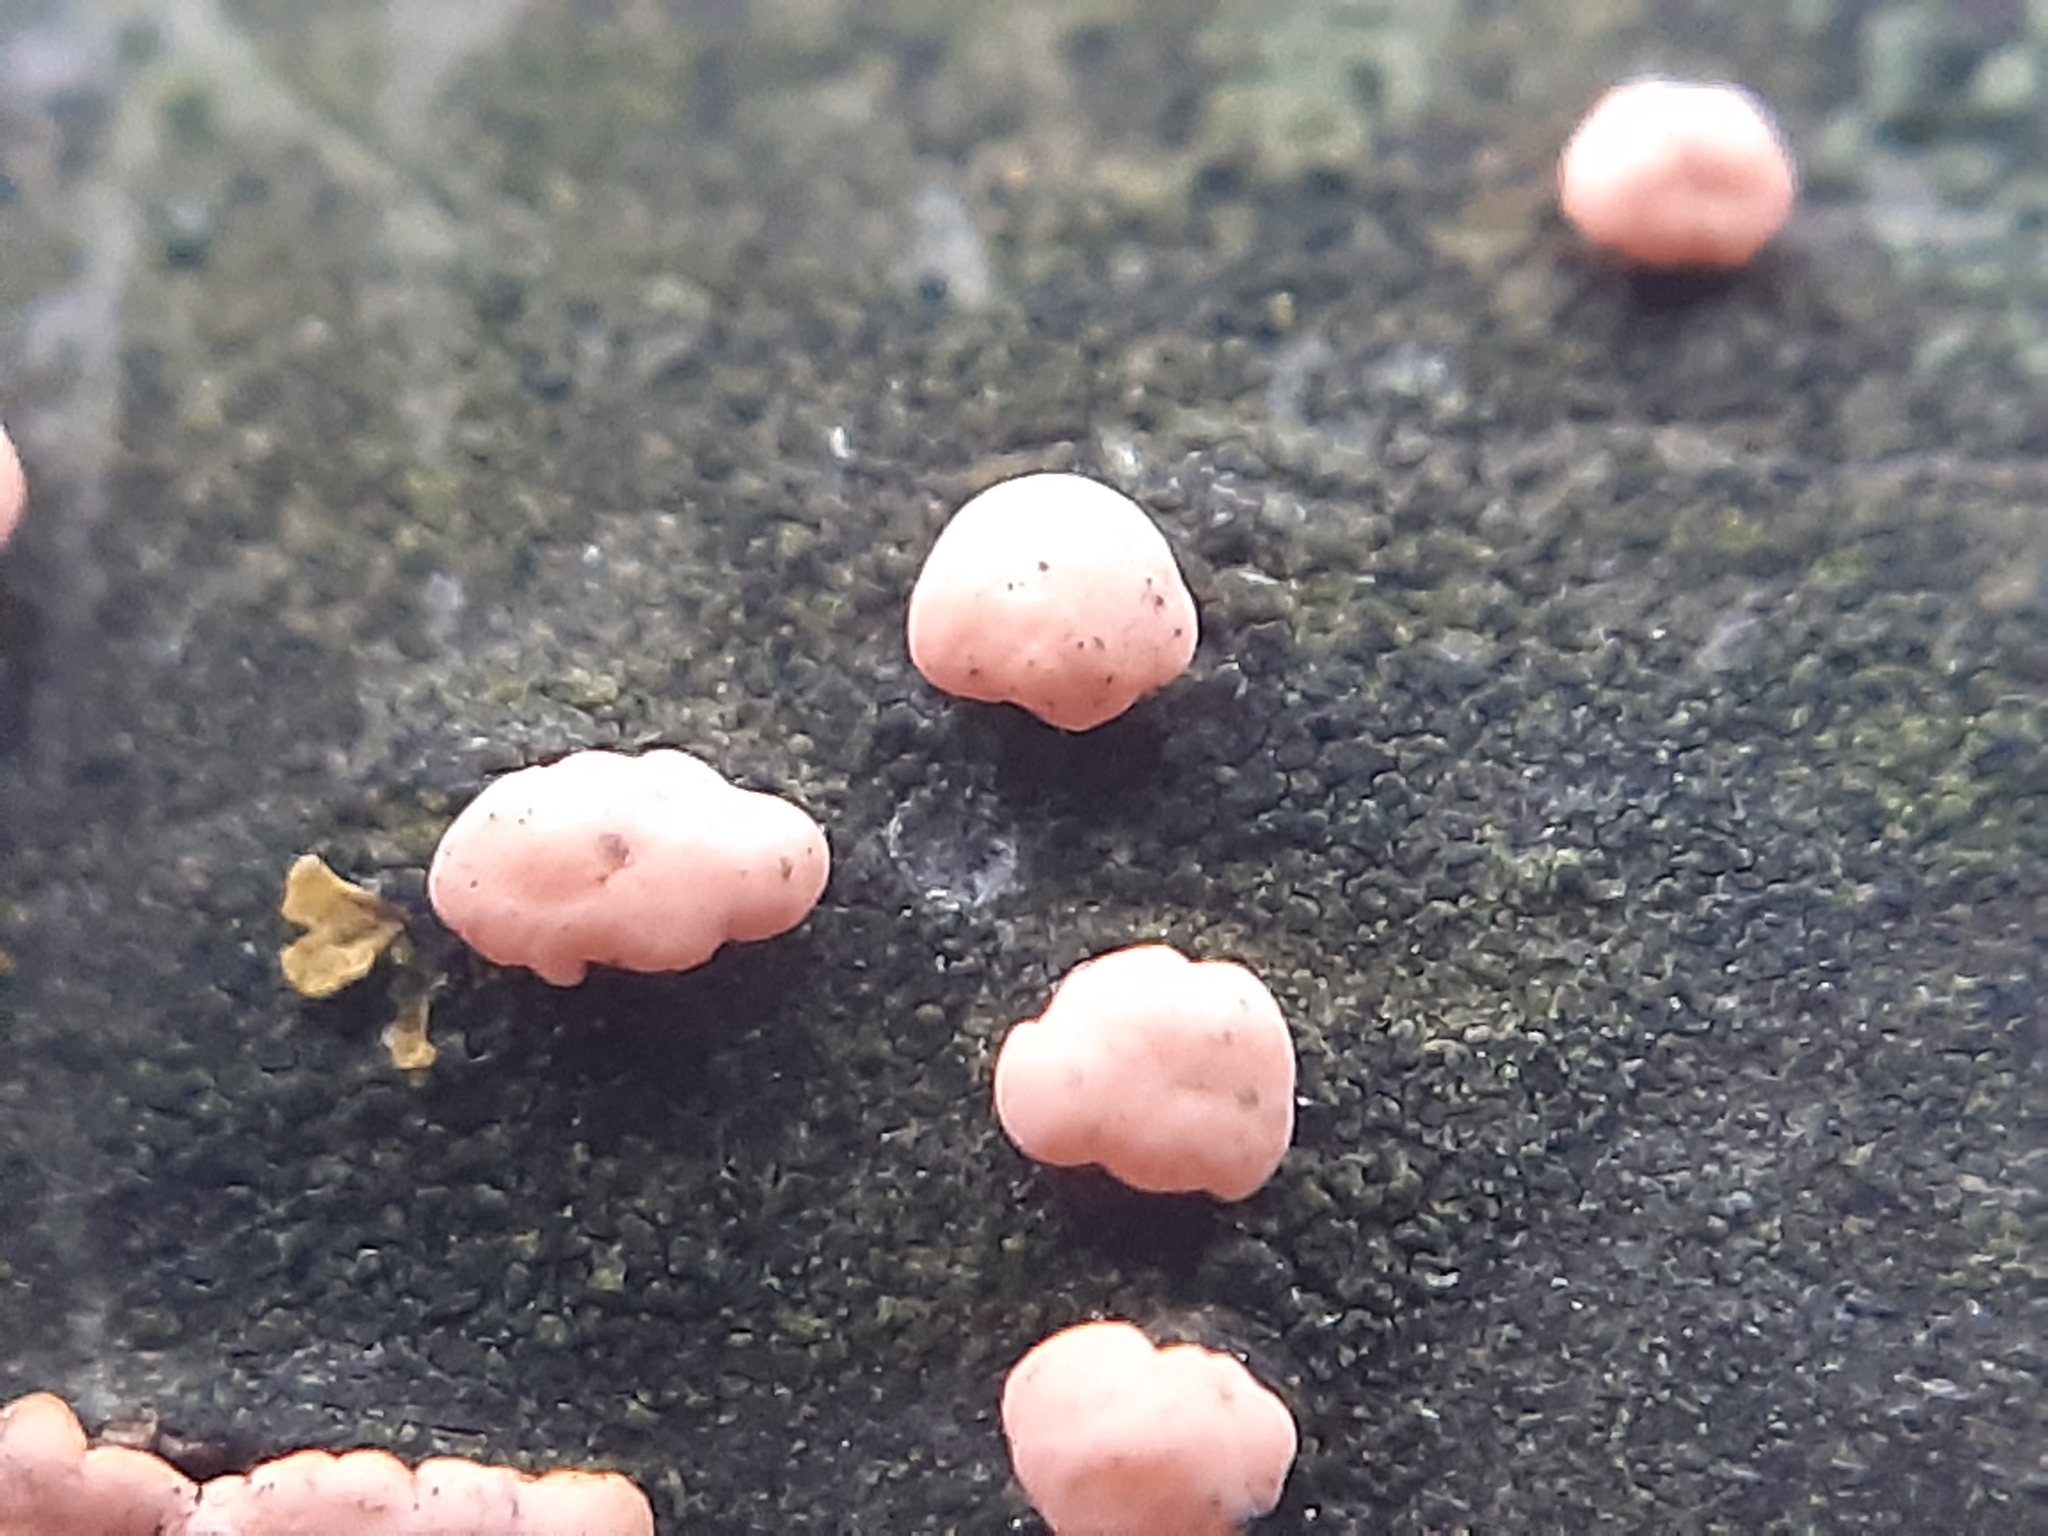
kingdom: Fungi
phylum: Ascomycota
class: Sordariomycetes
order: Hypocreales
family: Nectriaceae
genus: Nectria
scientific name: Nectria cinnabarina
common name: Coral spot
